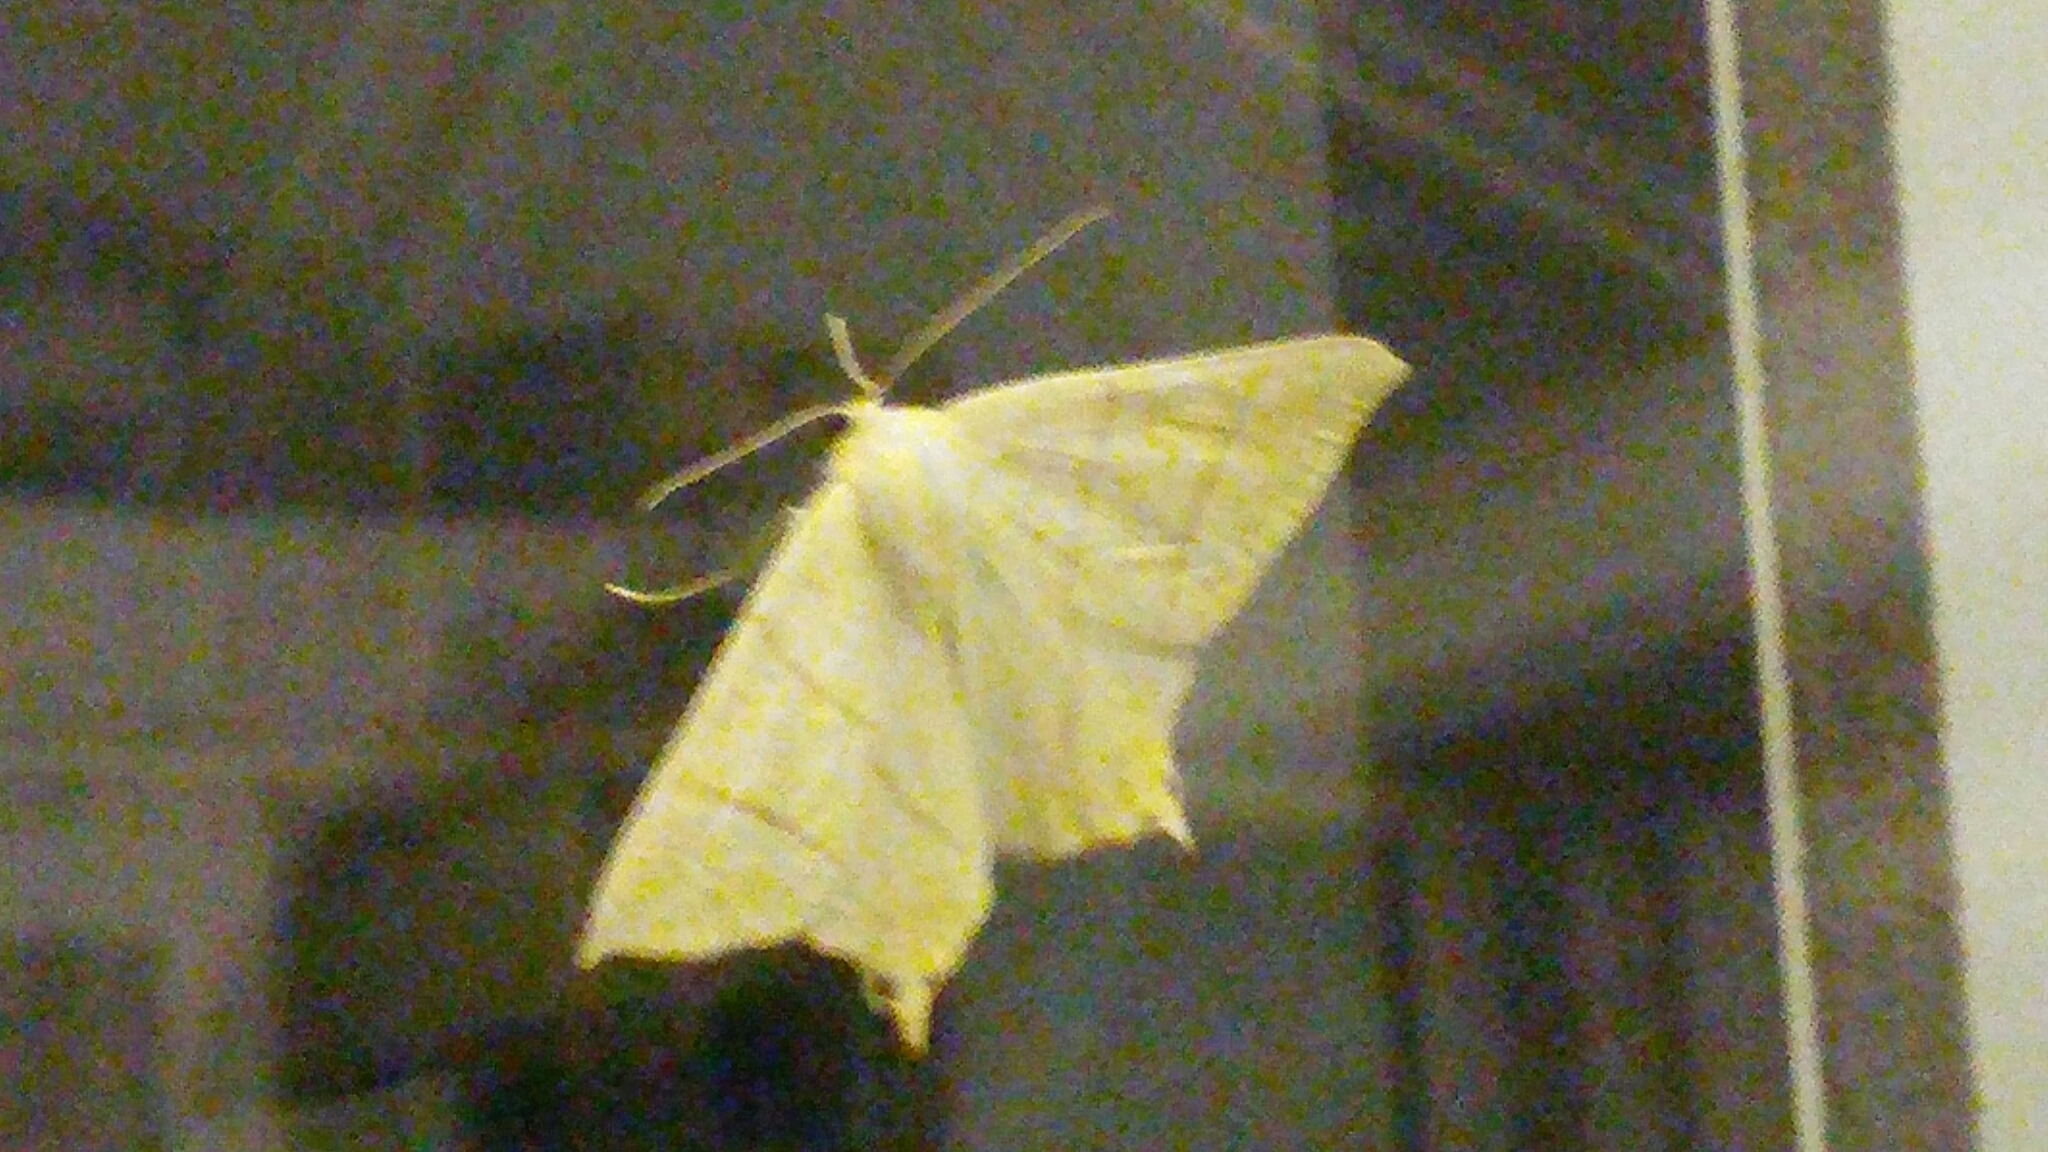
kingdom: Animalia
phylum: Arthropoda
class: Insecta
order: Lepidoptera
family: Geometridae
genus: Ourapteryx
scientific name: Ourapteryx sambucaria
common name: Swallow-tailed moth
